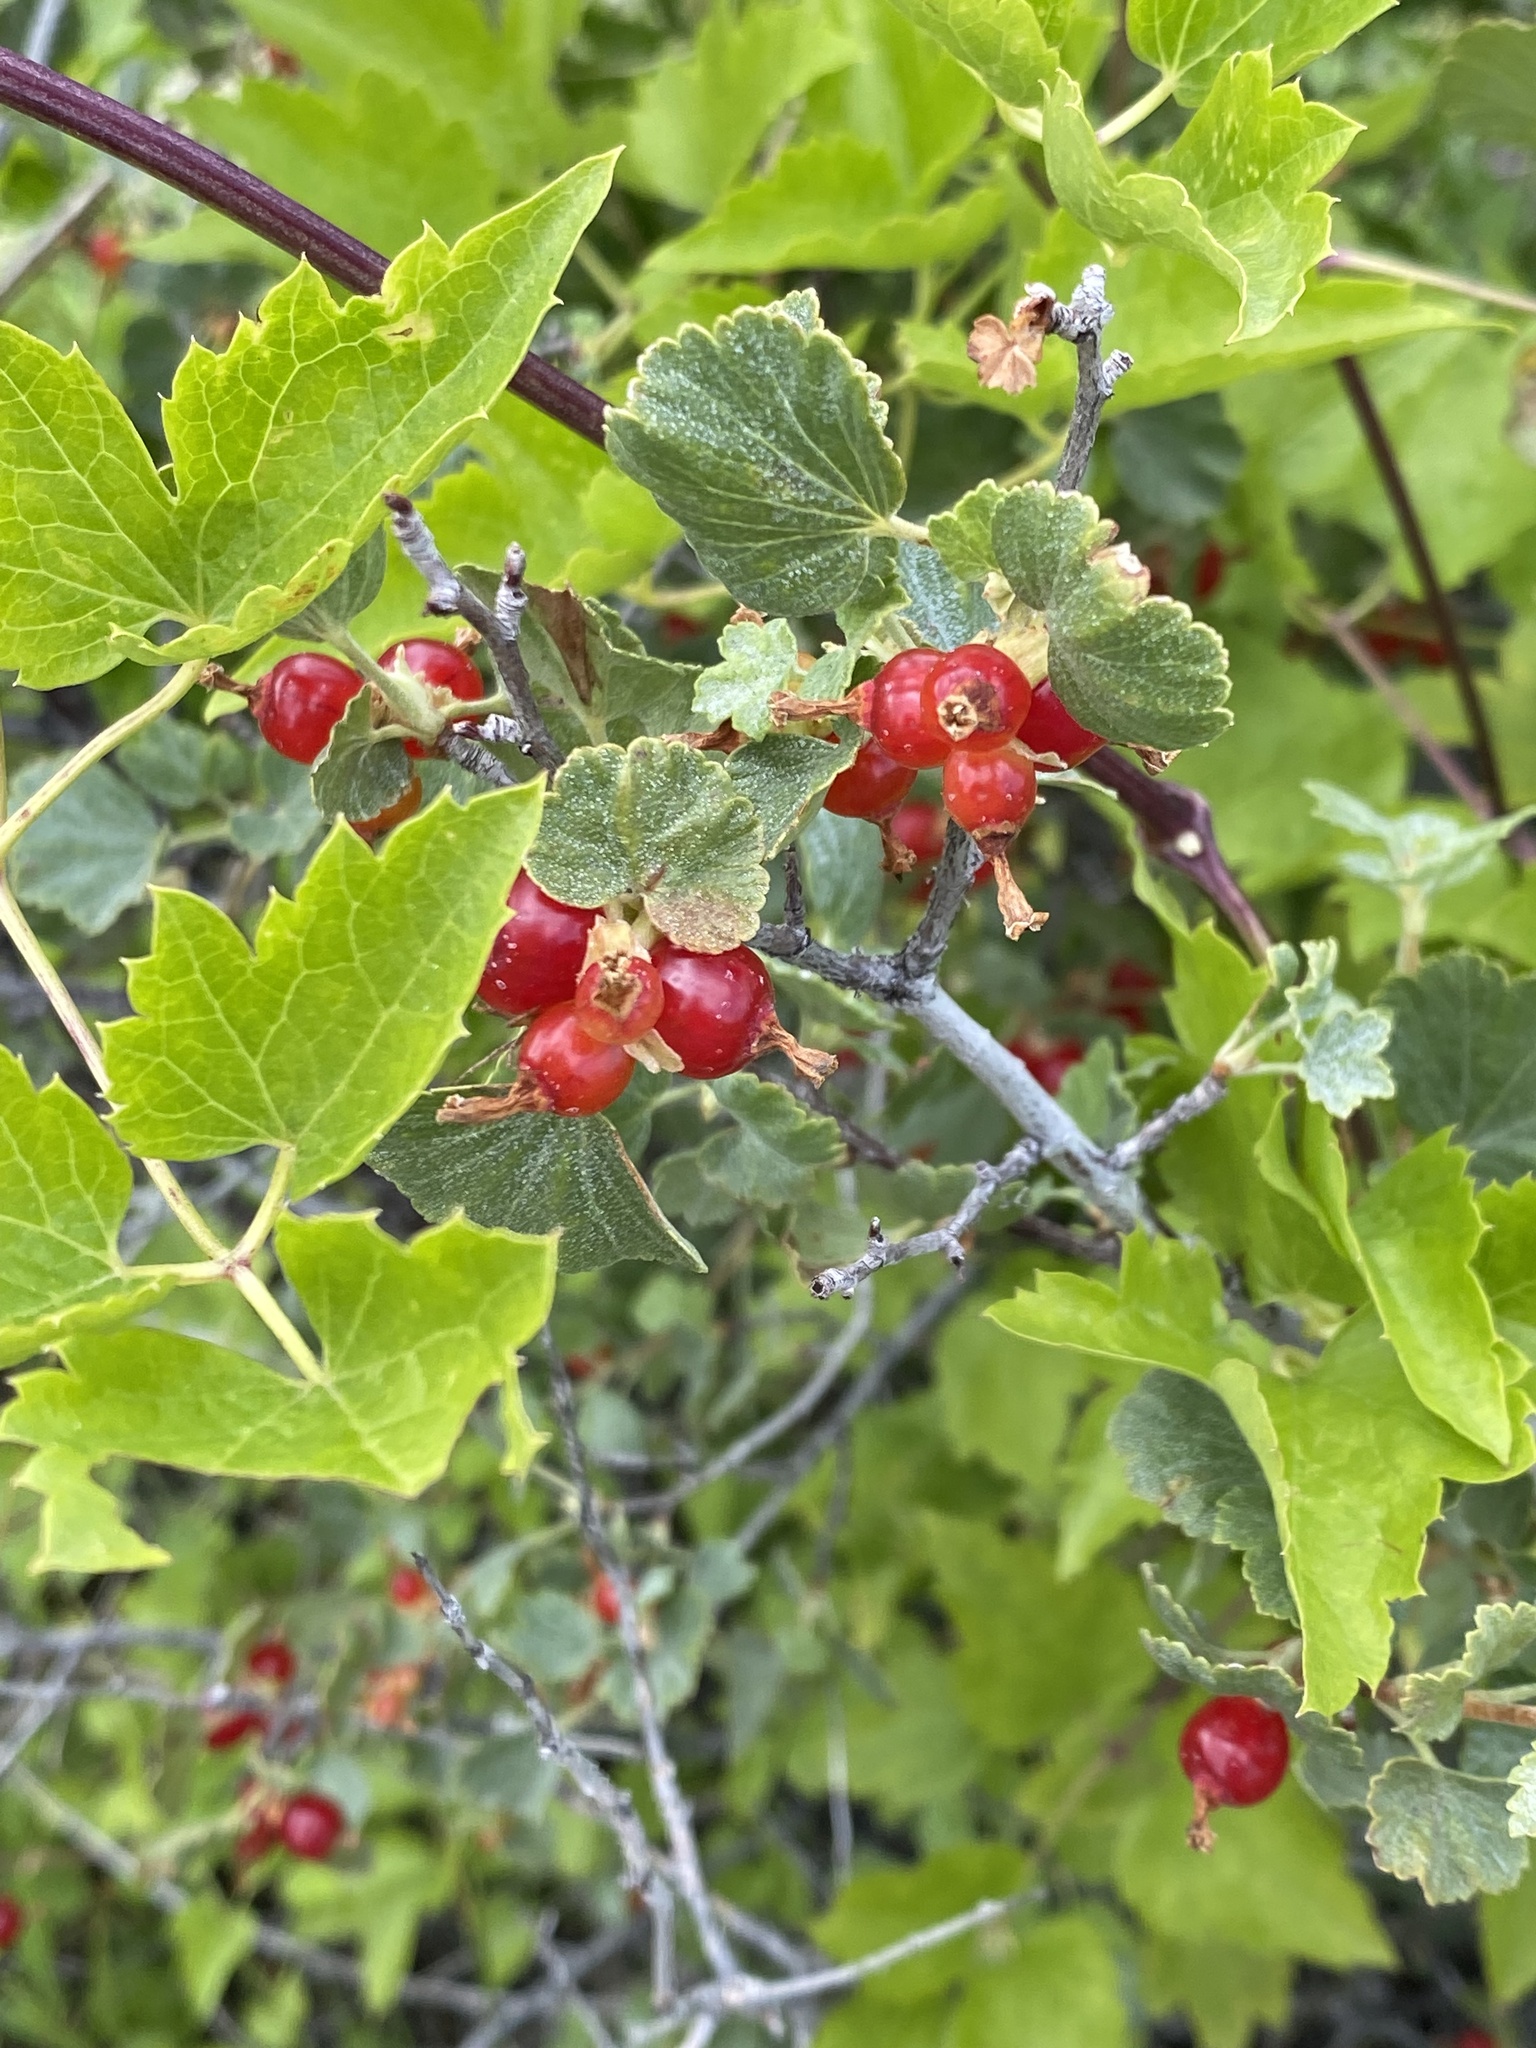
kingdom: Plantae
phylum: Tracheophyta
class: Magnoliopsida
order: Saxifragales
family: Grossulariaceae
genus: Ribes
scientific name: Ribes cereum
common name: Wax currant
